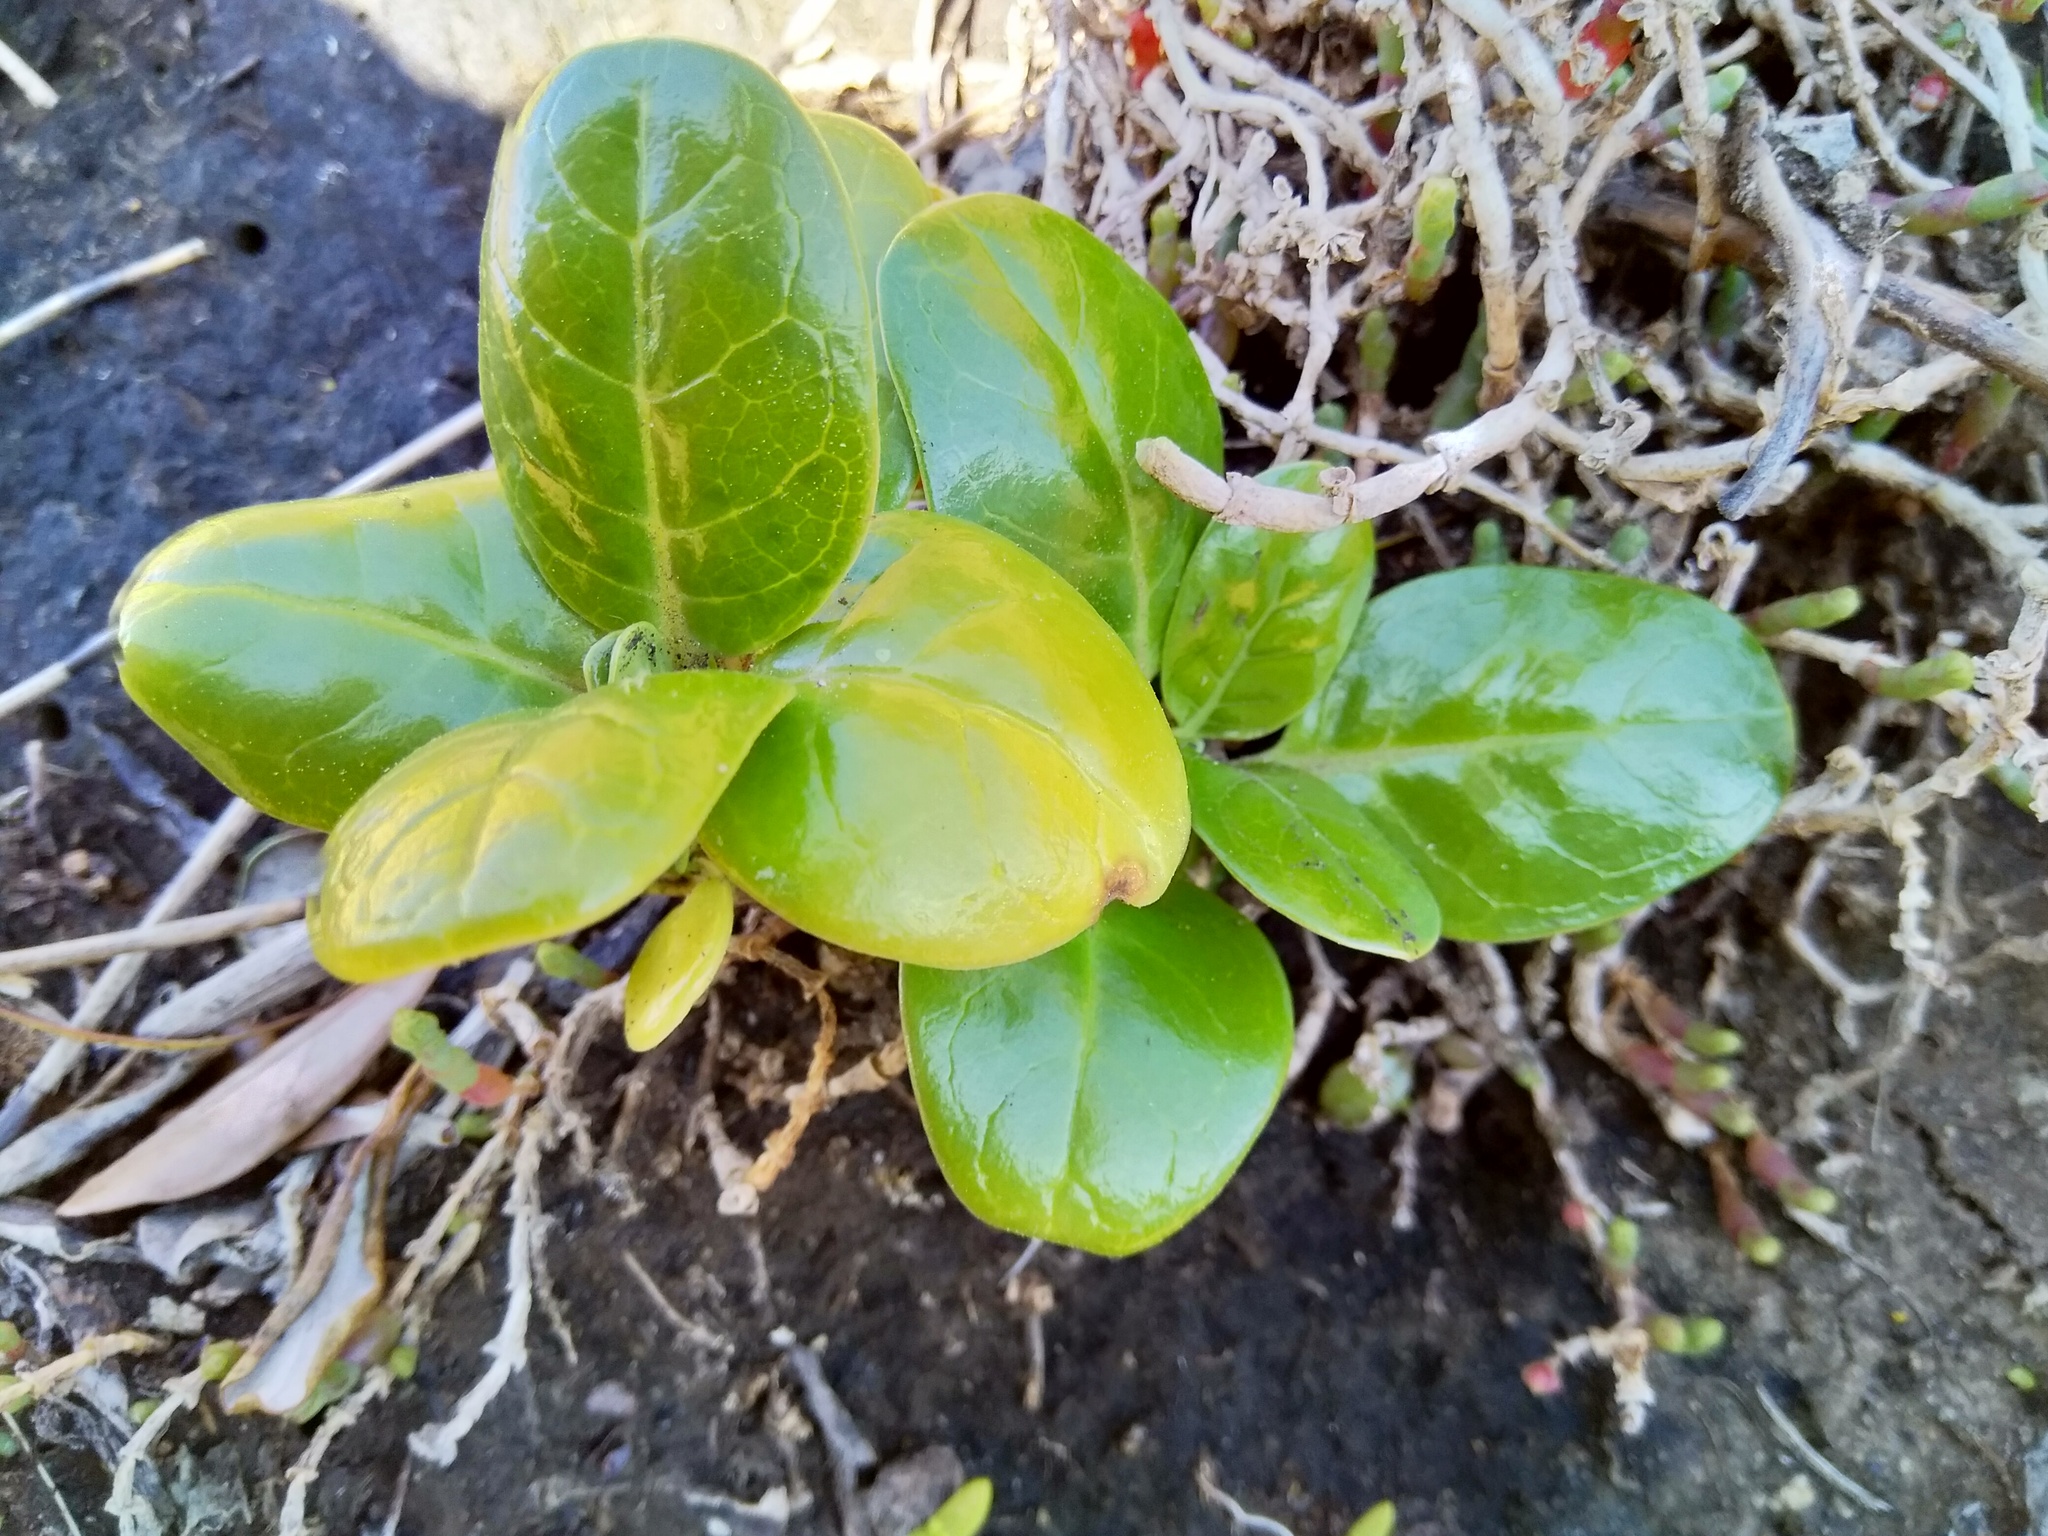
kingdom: Plantae
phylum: Tracheophyta
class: Magnoliopsida
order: Gentianales
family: Rubiaceae
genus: Coprosma
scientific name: Coprosma repens
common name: Tree bedstraw
